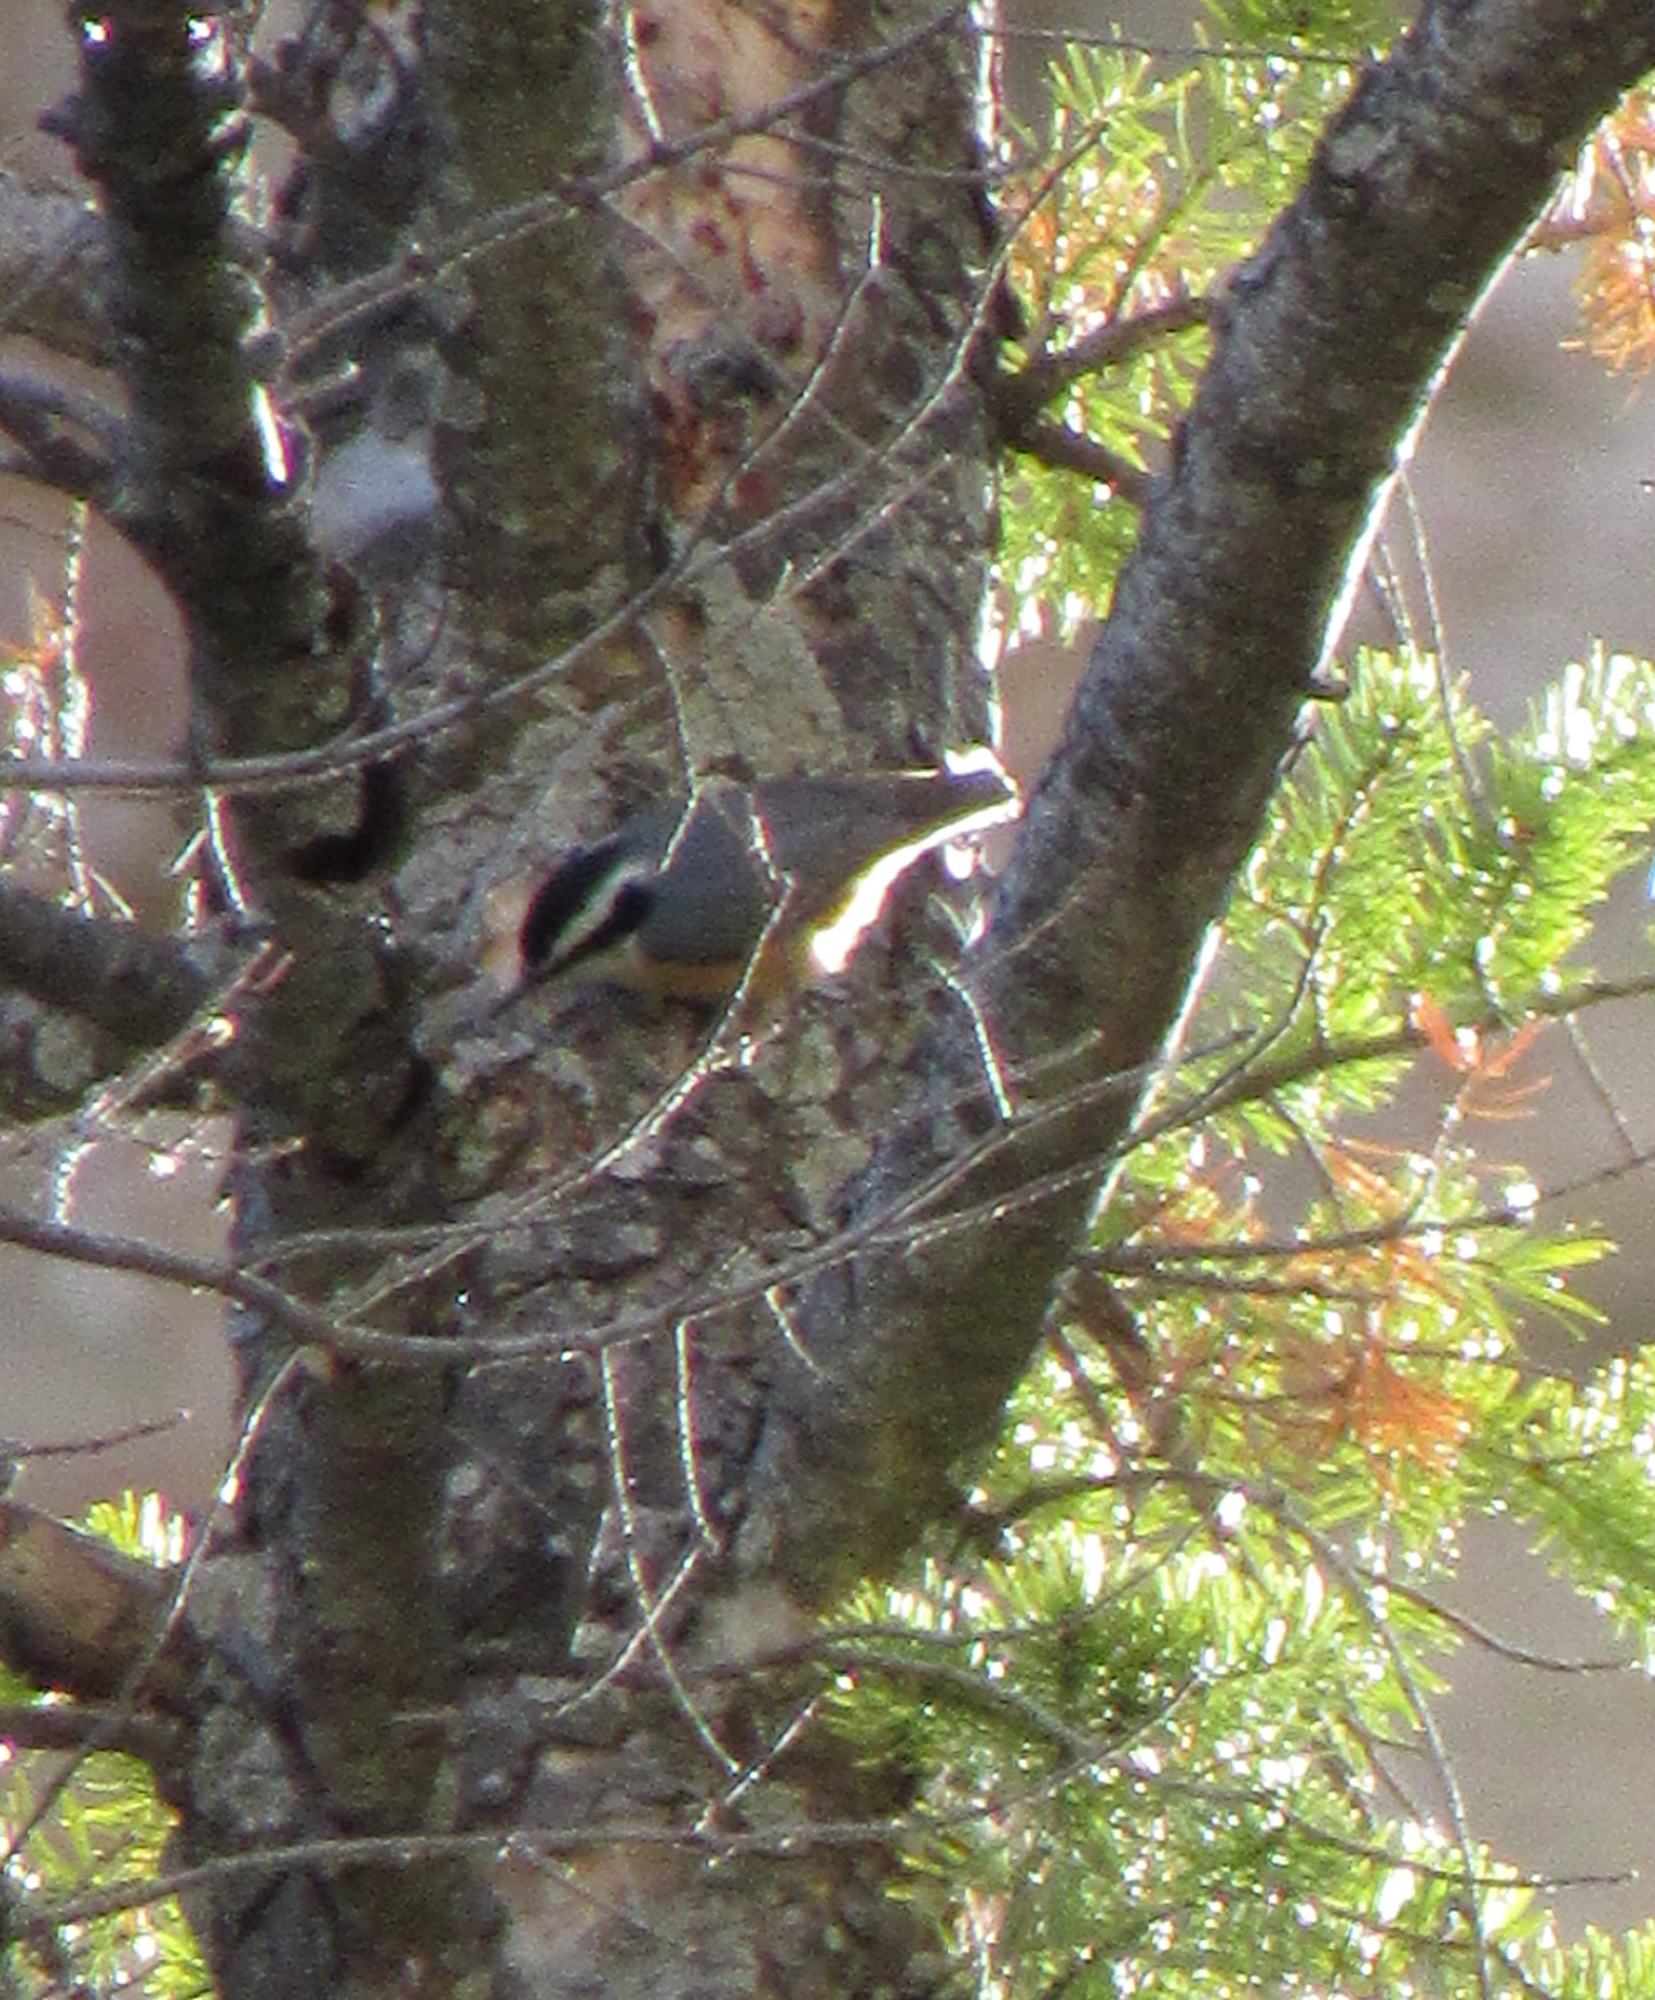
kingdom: Animalia
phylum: Chordata
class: Aves
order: Passeriformes
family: Sittidae
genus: Sitta
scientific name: Sitta canadensis
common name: Red-breasted nuthatch
